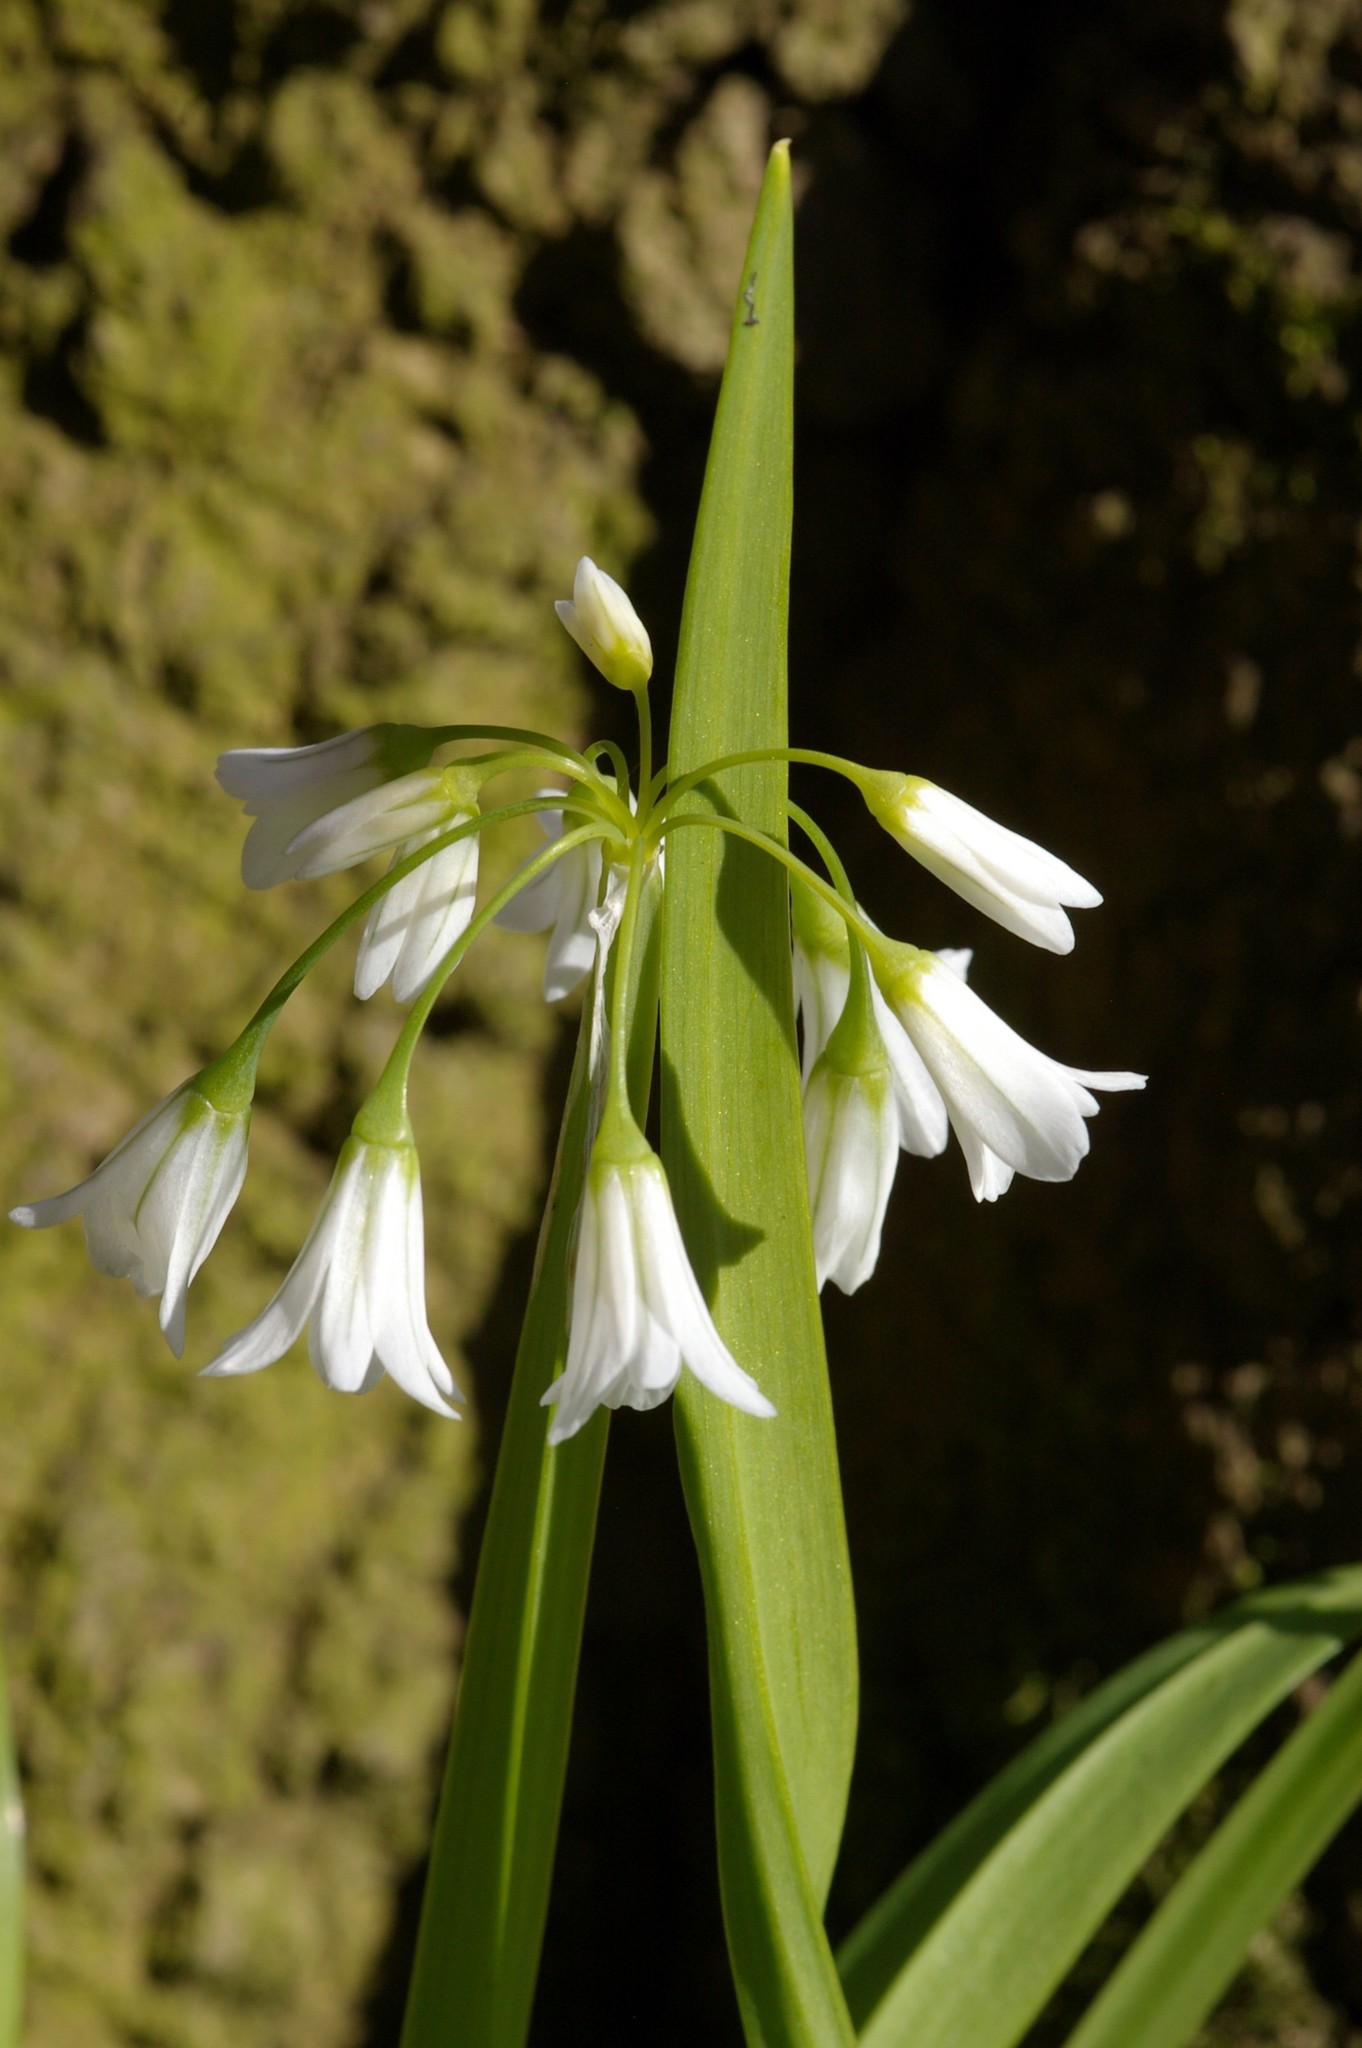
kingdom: Plantae
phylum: Tracheophyta
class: Liliopsida
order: Asparagales
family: Amaryllidaceae
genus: Allium
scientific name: Allium triquetrum
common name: Three-cornered garlic
